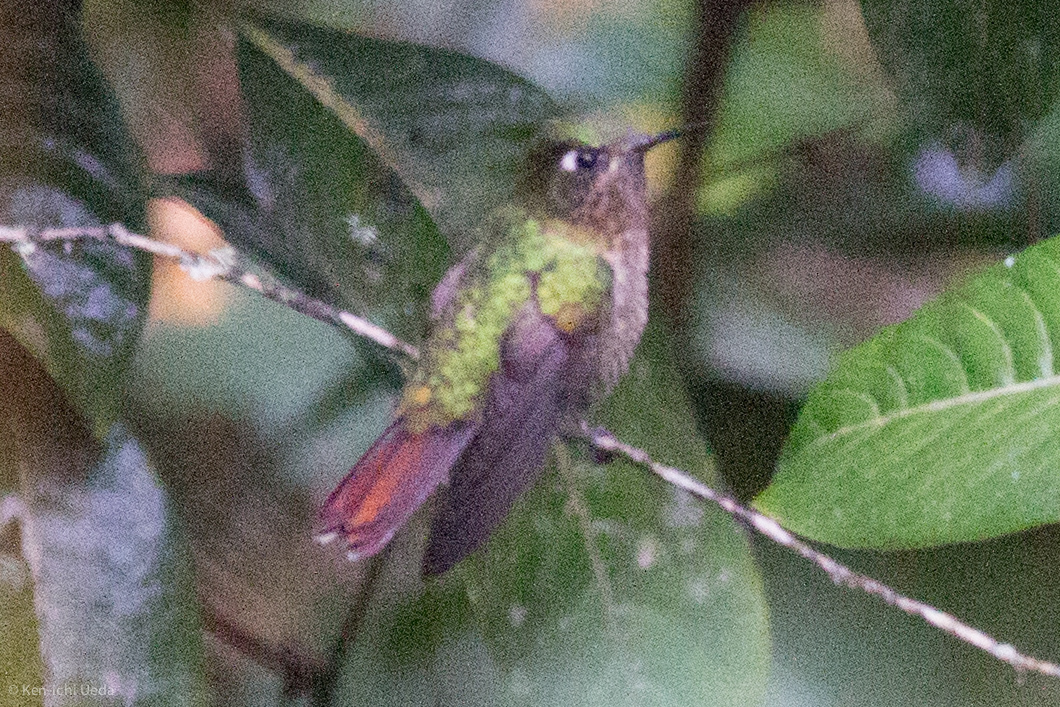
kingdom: Animalia
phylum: Chordata
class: Aves
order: Apodiformes
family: Trochilidae
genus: Metallura
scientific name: Metallura tyrianthina
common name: Tyrian metaltail
